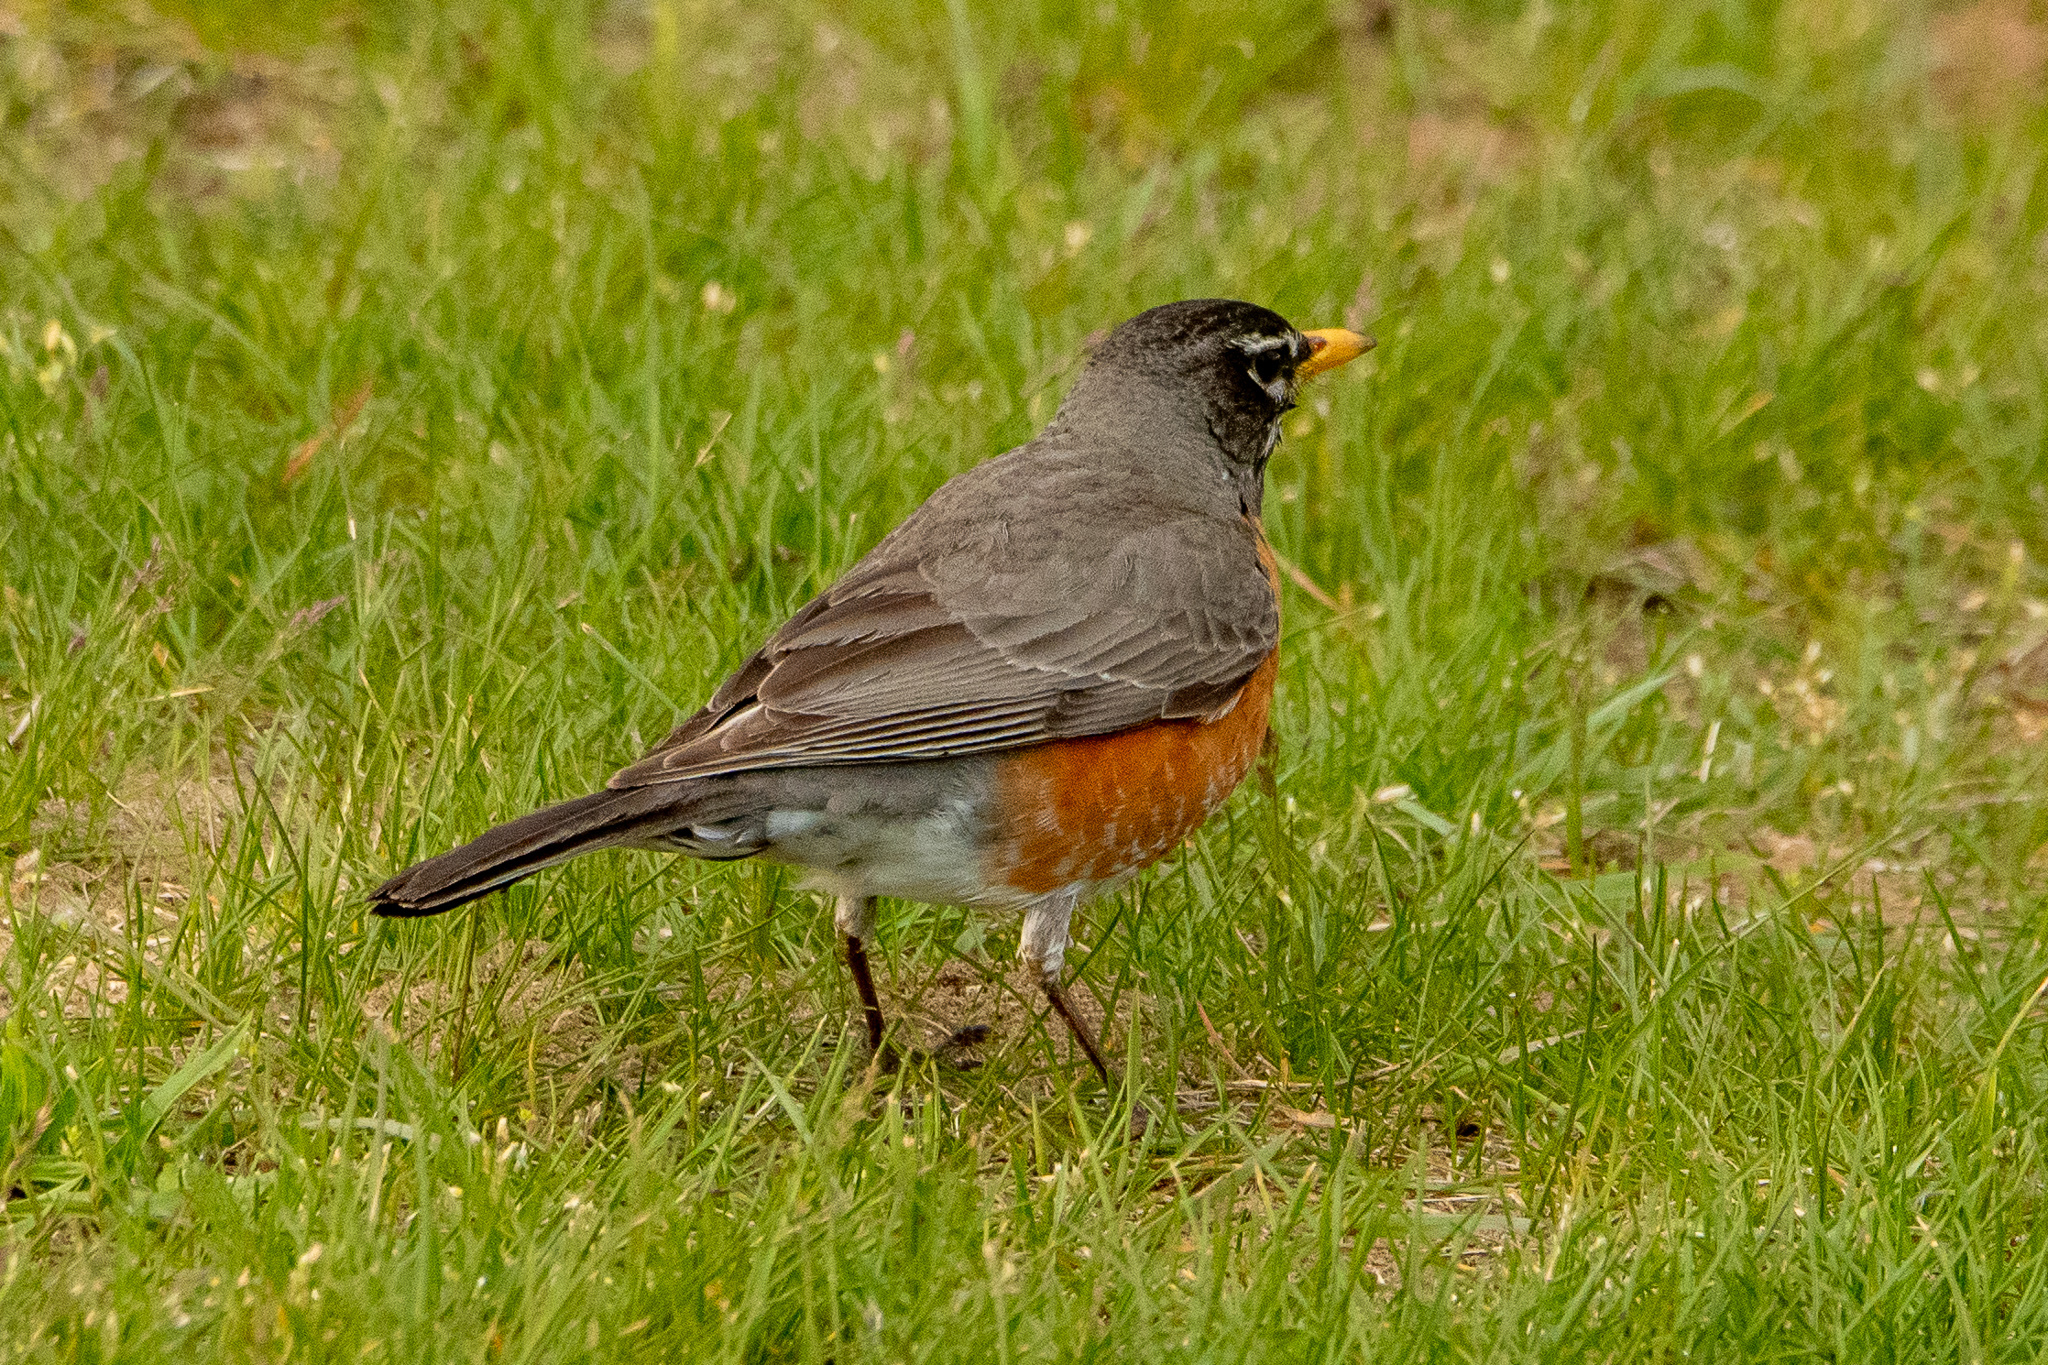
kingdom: Animalia
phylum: Chordata
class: Aves
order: Passeriformes
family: Turdidae
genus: Turdus
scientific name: Turdus migratorius
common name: American robin
